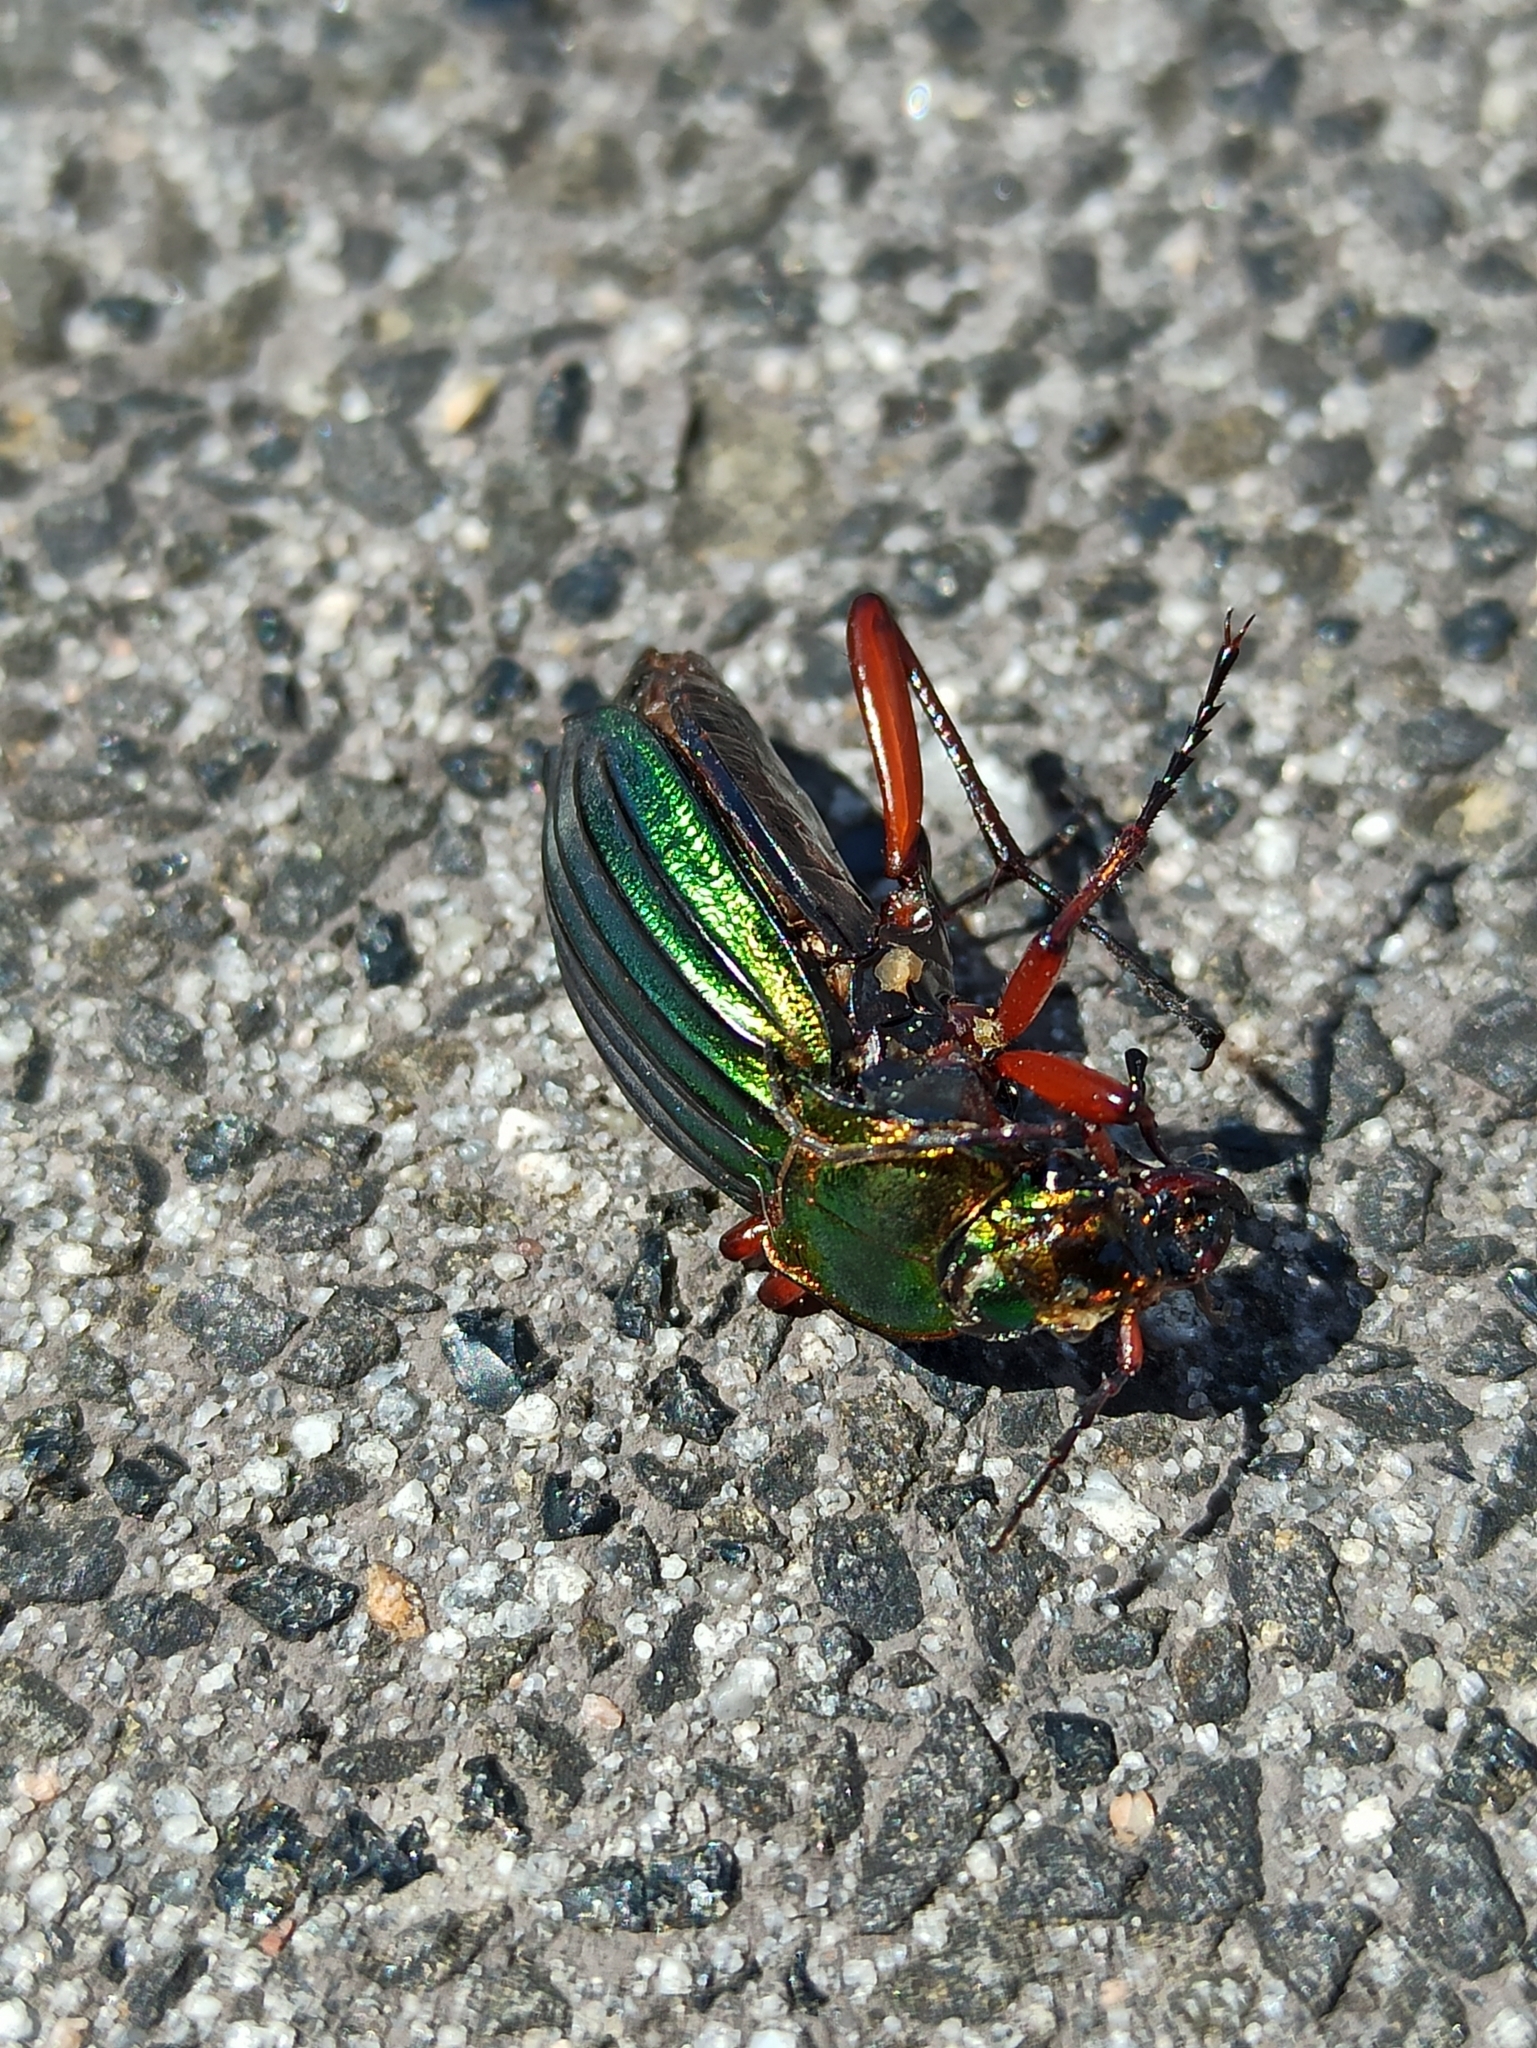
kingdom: Animalia
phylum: Arthropoda
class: Insecta
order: Coleoptera
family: Carabidae
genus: Carabus
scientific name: Carabus auronitens
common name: Carabus auronitens
